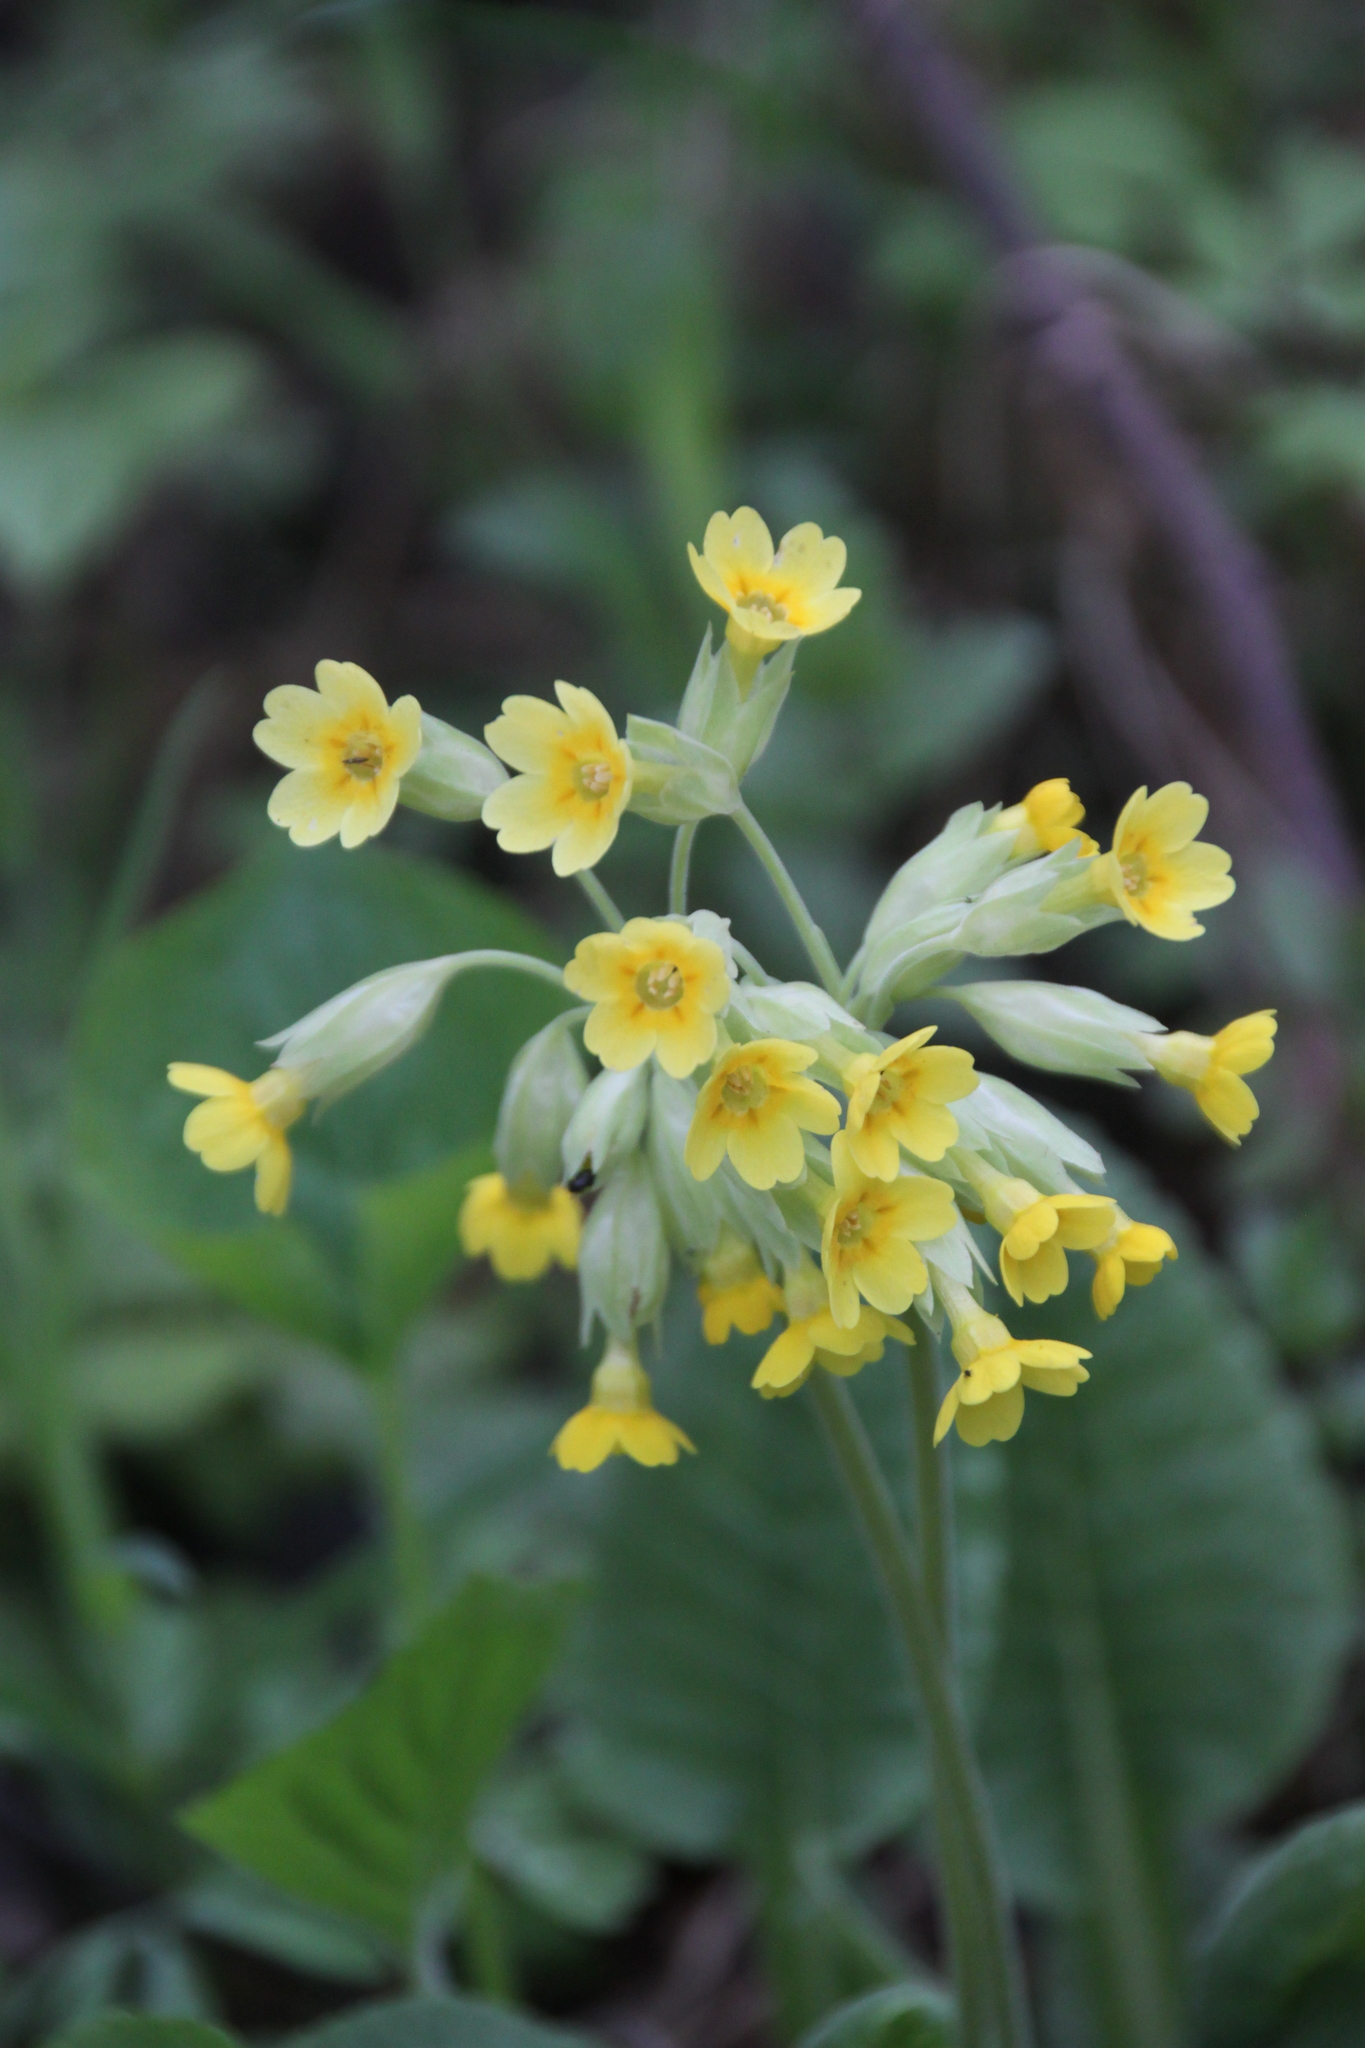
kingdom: Plantae
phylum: Tracheophyta
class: Magnoliopsida
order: Ericales
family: Primulaceae
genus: Primula
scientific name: Primula veris
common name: Cowslip
